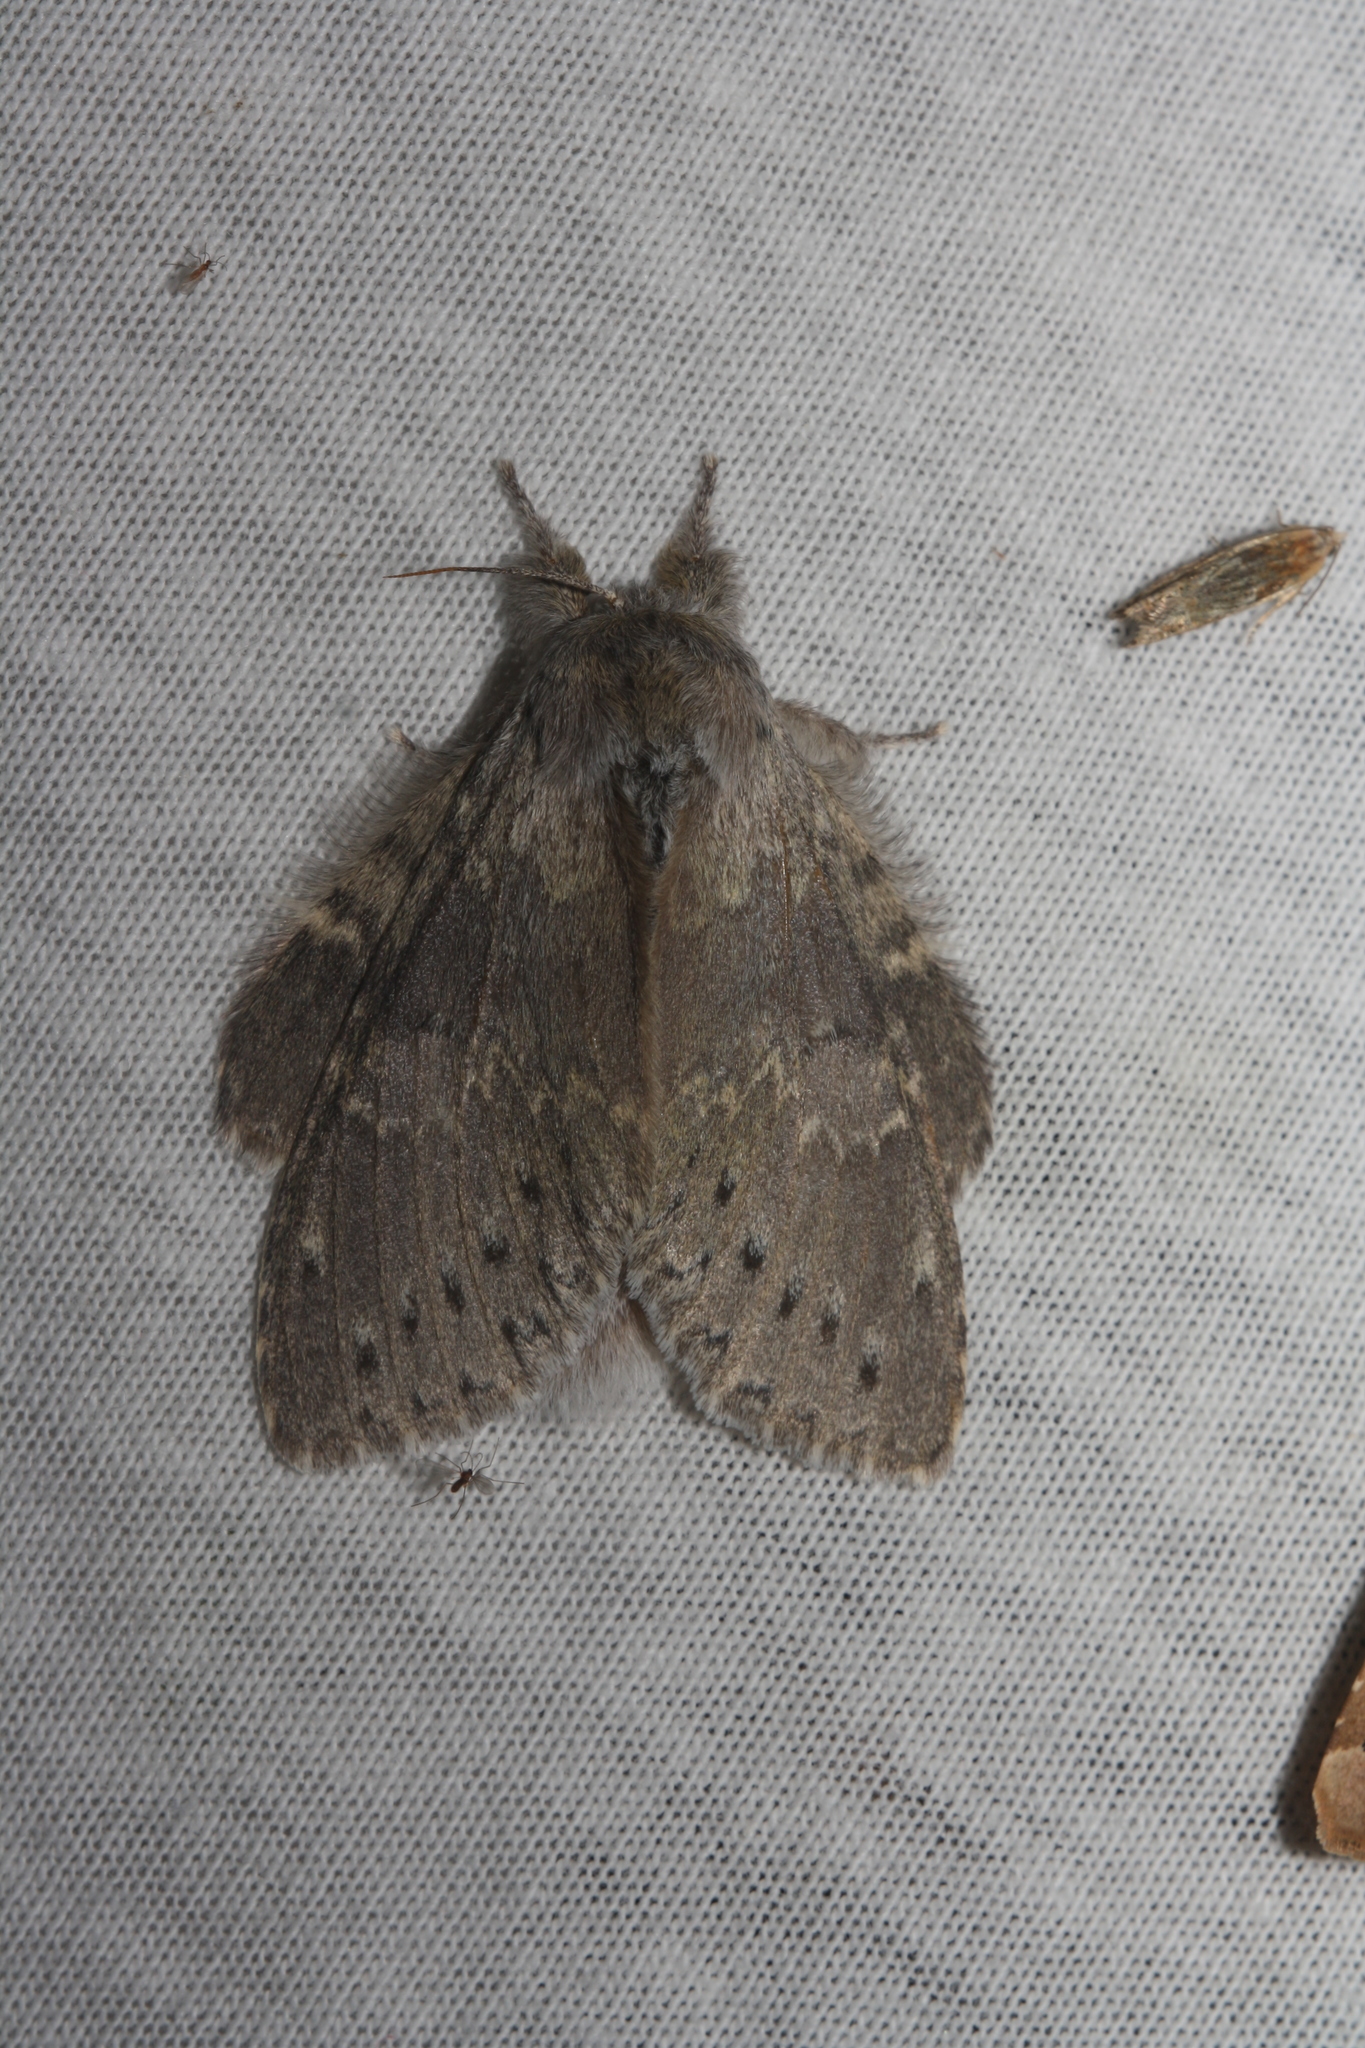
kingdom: Animalia
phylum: Arthropoda
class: Insecta
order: Lepidoptera
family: Notodontidae
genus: Stauropus
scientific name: Stauropus fagi
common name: Lobster moth
